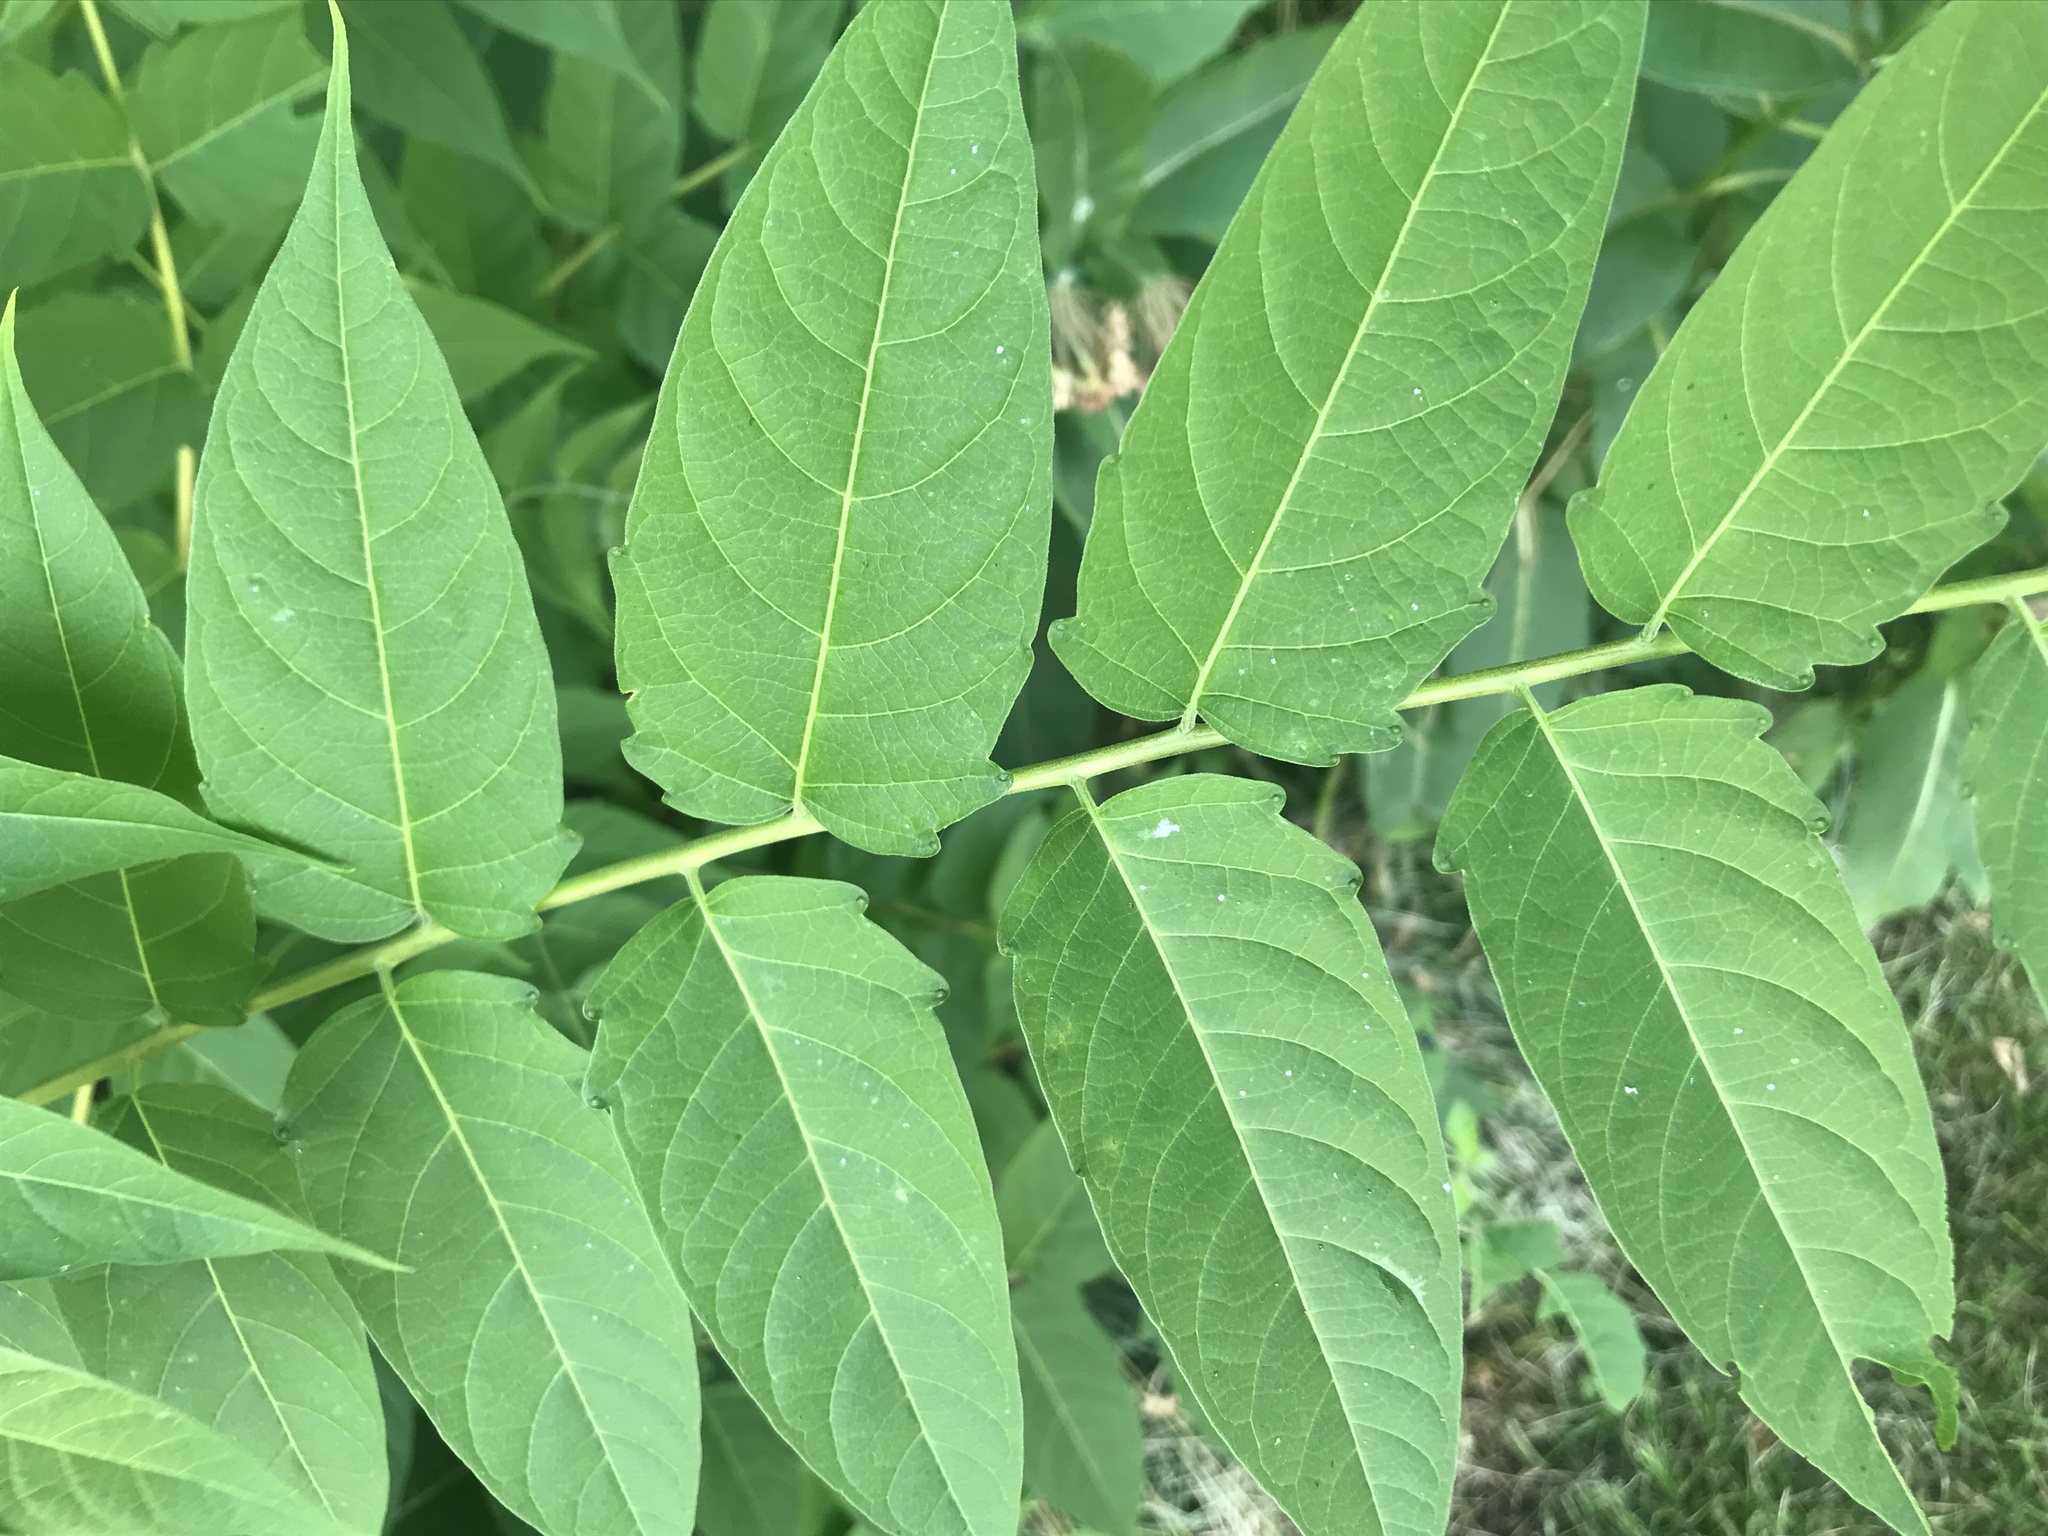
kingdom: Plantae
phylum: Tracheophyta
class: Magnoliopsida
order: Sapindales
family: Simaroubaceae
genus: Ailanthus
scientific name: Ailanthus altissima
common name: Tree-of-heaven
